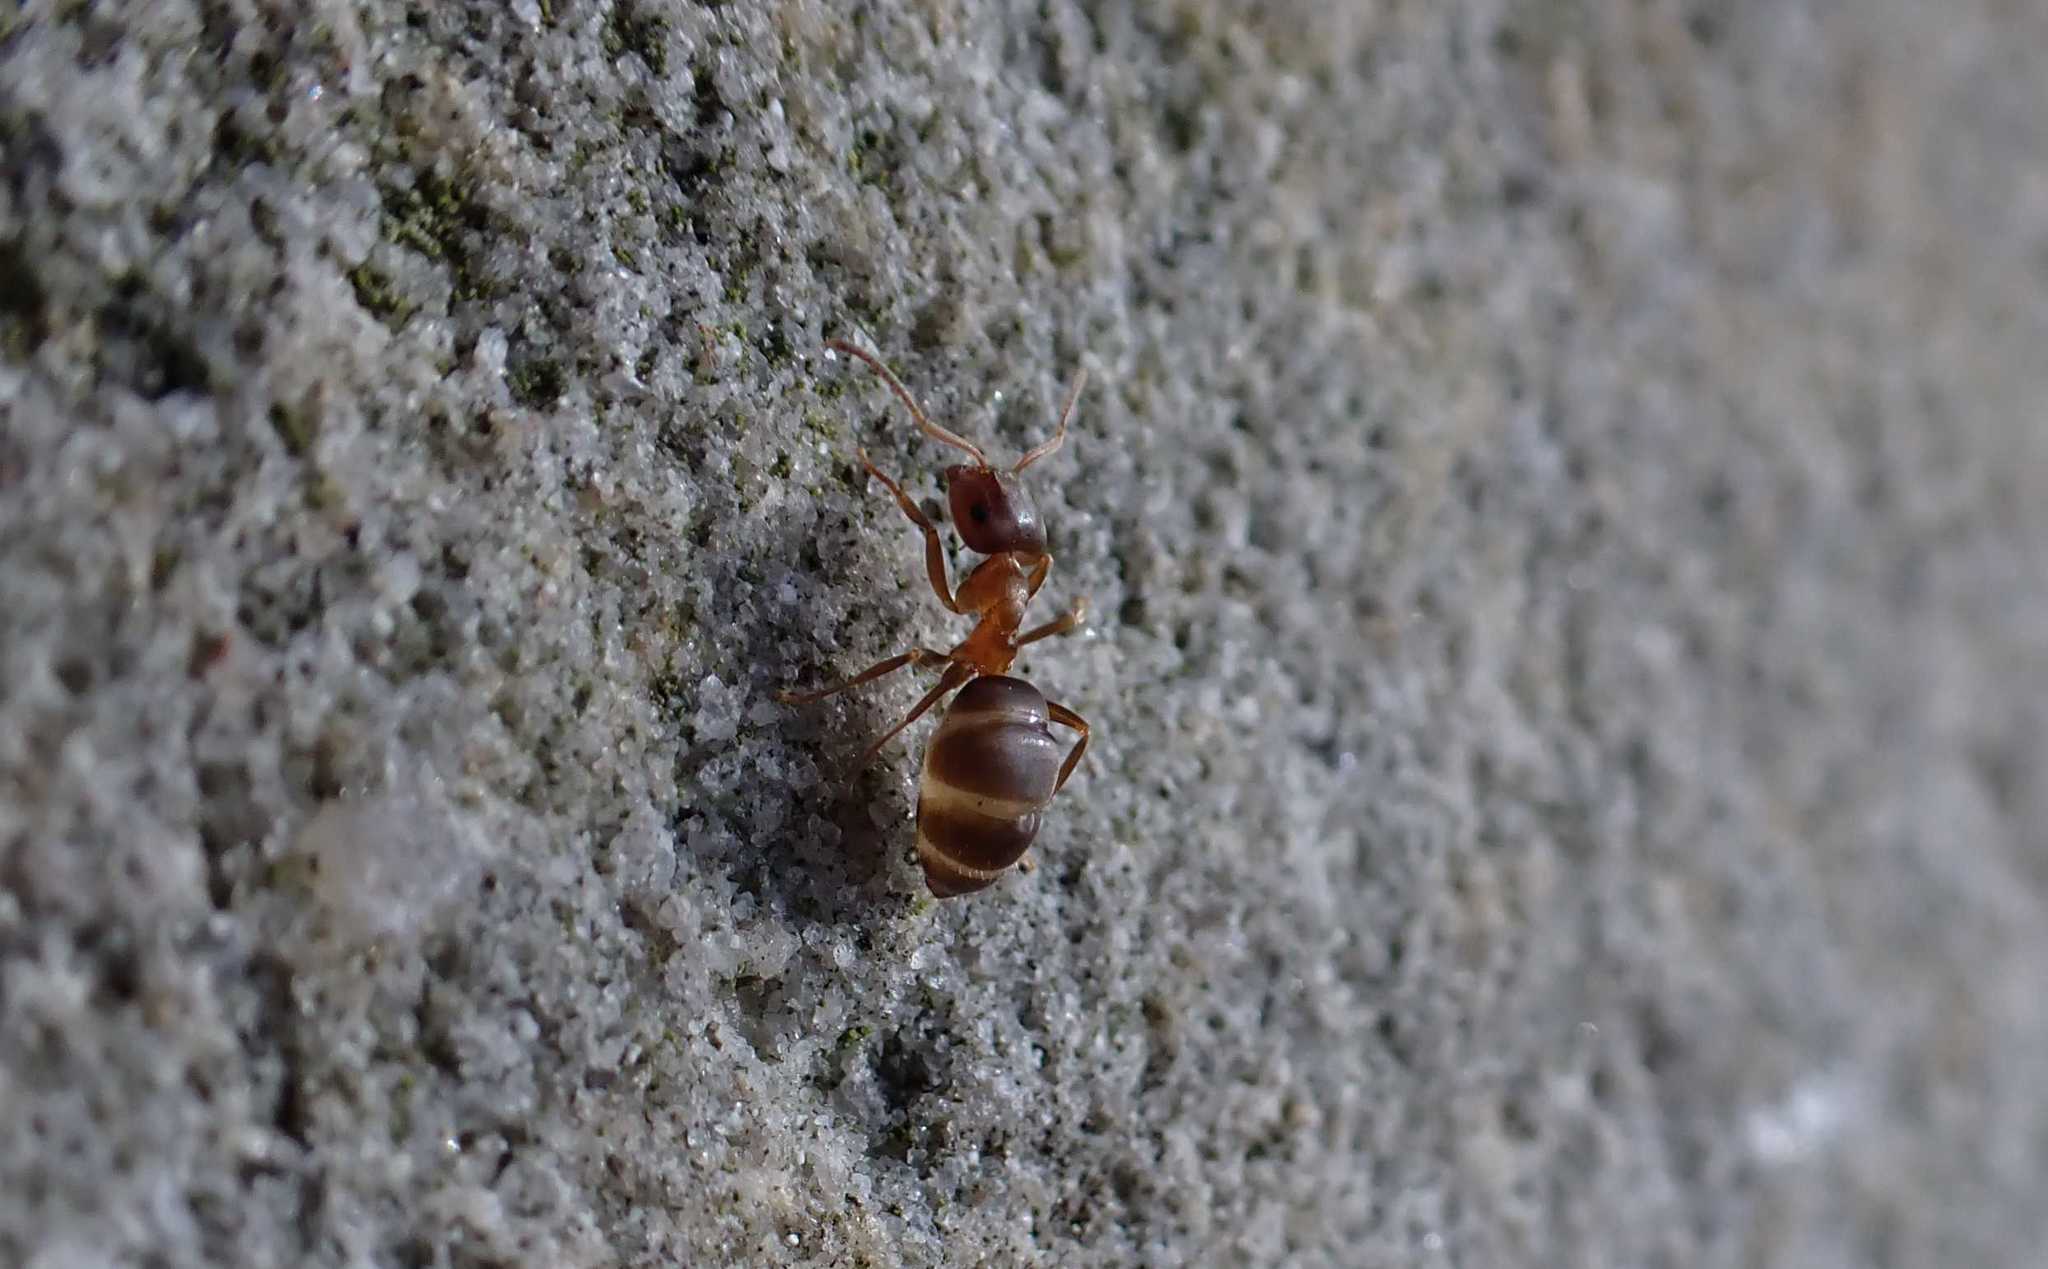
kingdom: Animalia
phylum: Arthropoda
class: Insecta
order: Hymenoptera
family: Formicidae
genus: Lasius
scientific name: Lasius brunneus
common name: Brown ant
